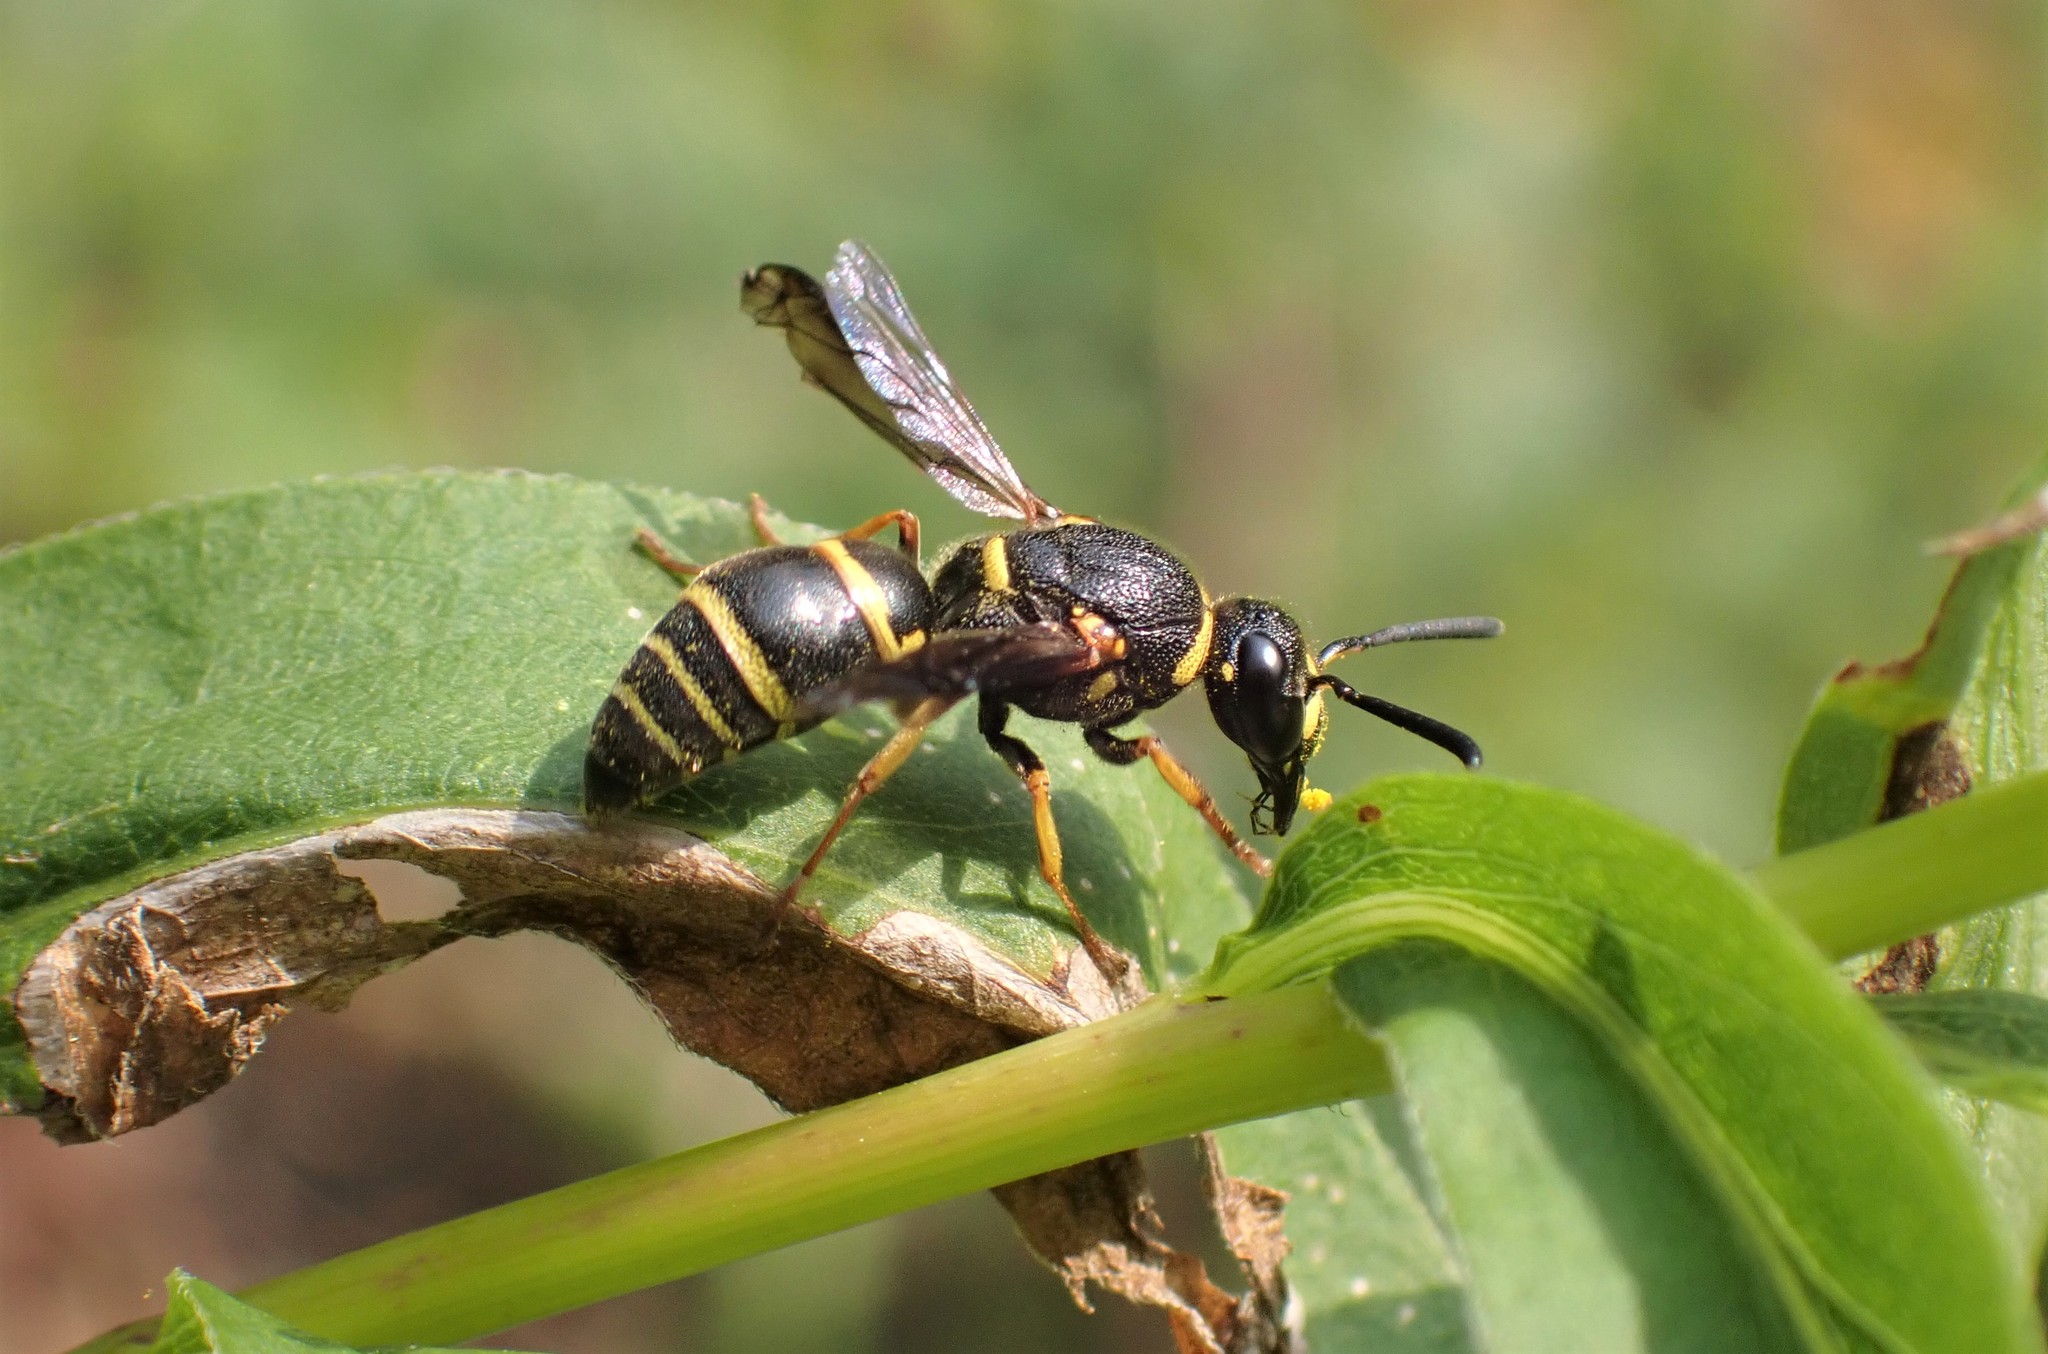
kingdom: Animalia
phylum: Arthropoda
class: Insecta
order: Hymenoptera
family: Eumenidae
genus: Euodynerus
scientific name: Euodynerus foraminatus
